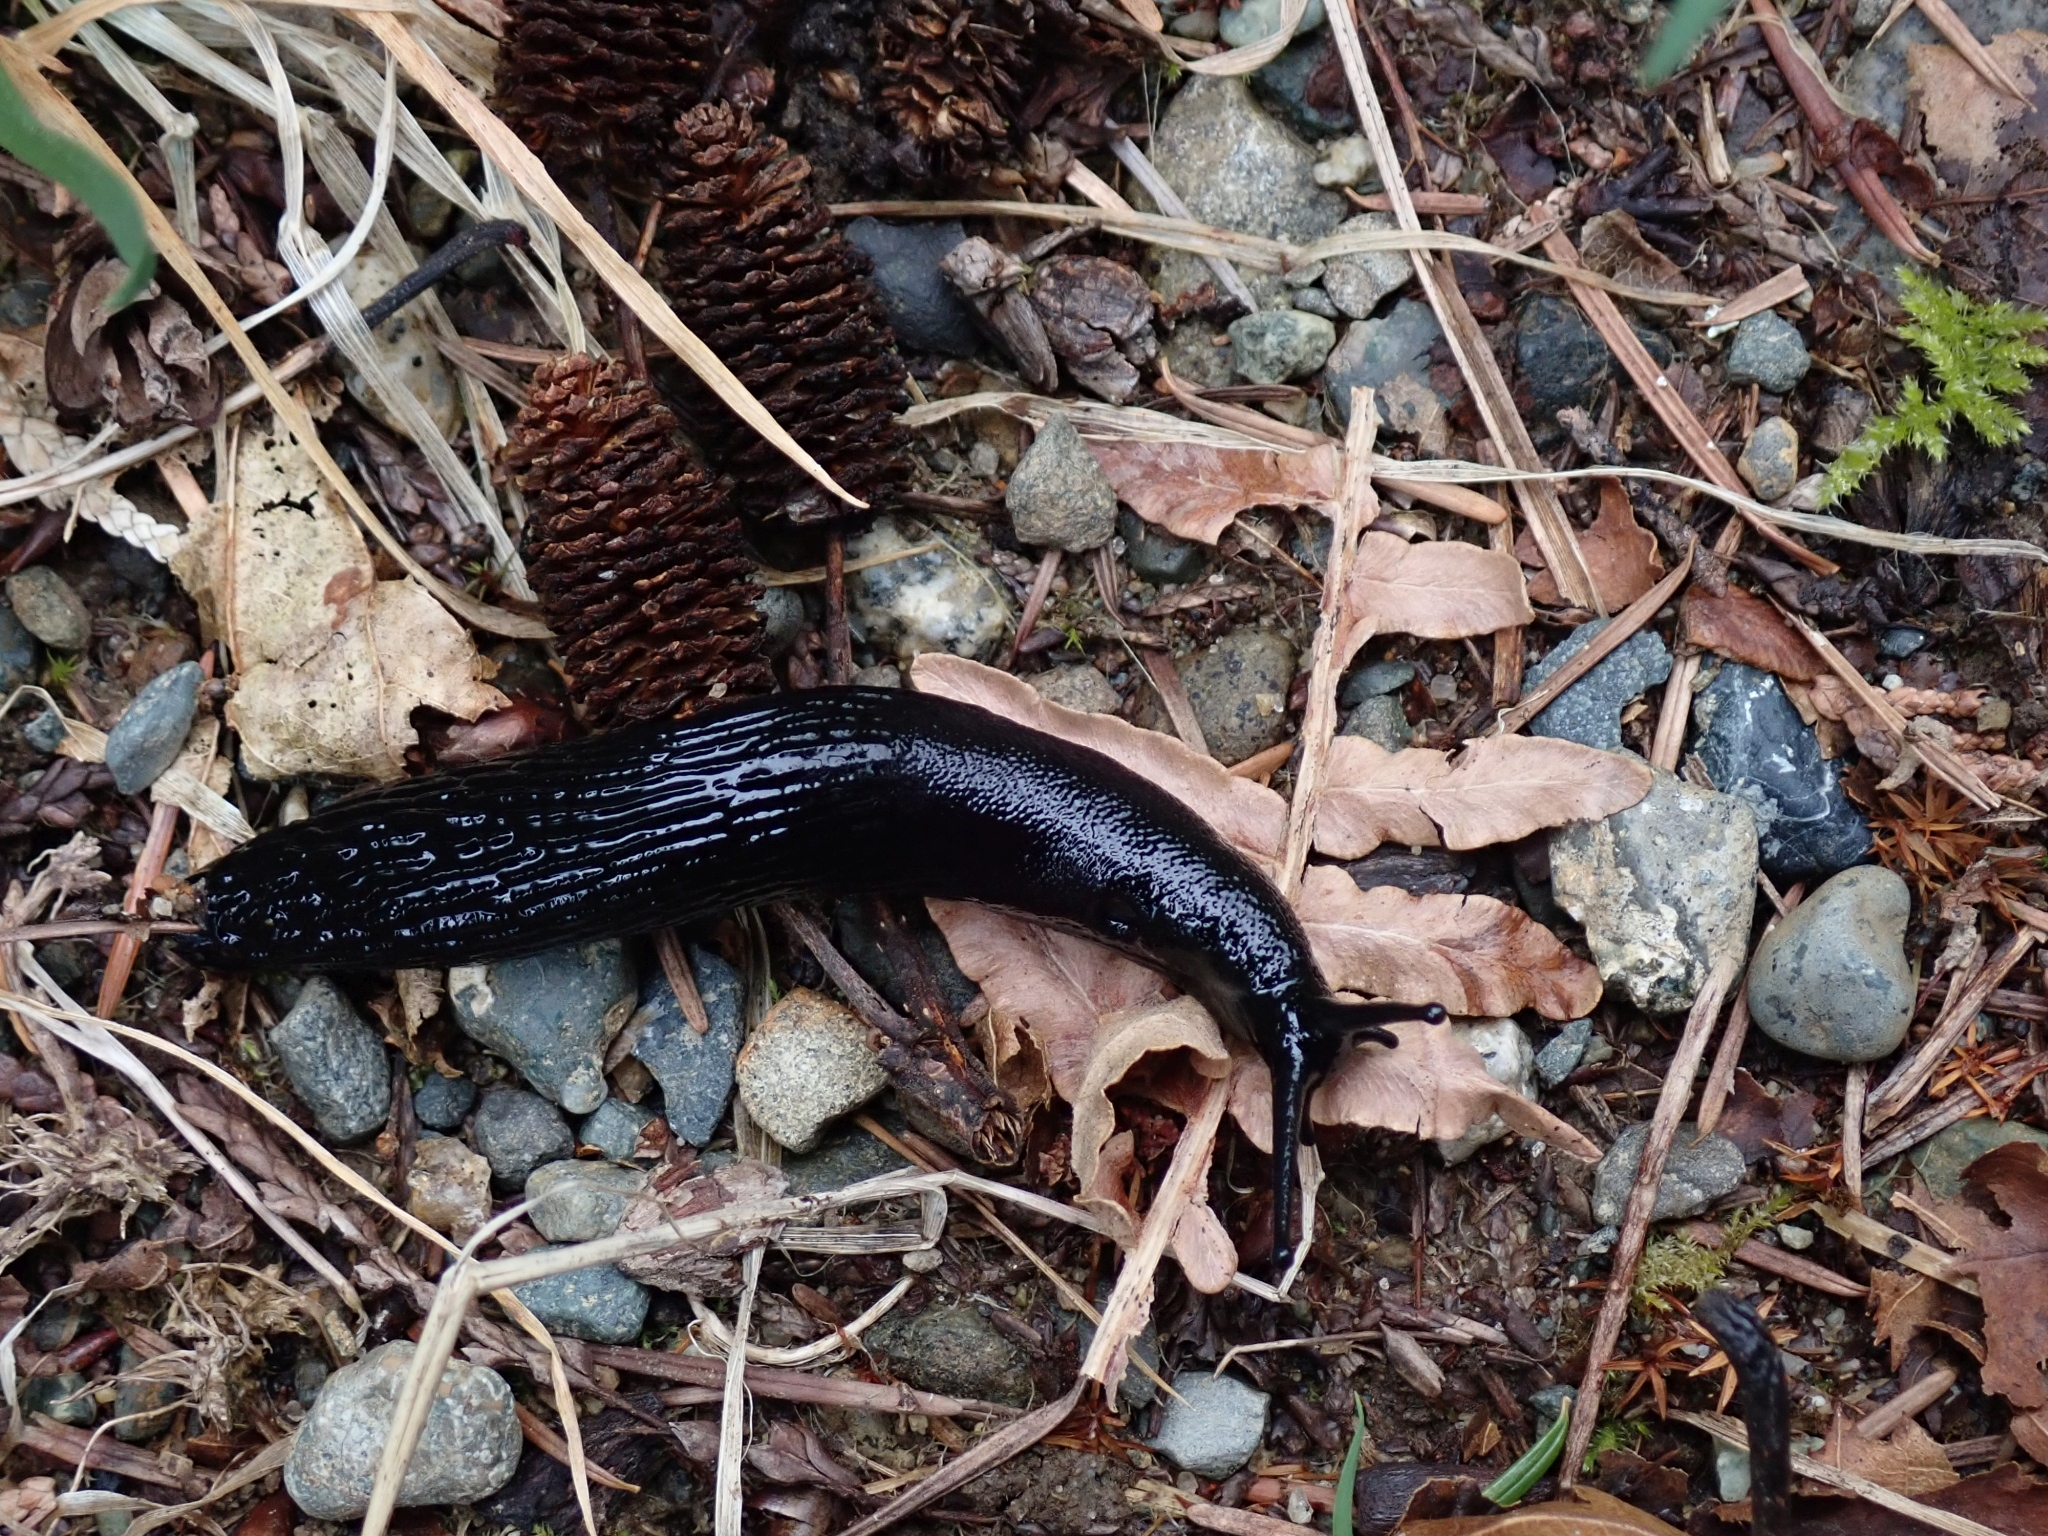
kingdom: Animalia
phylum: Mollusca
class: Gastropoda
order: Stylommatophora
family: Arionidae
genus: Arion
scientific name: Arion
